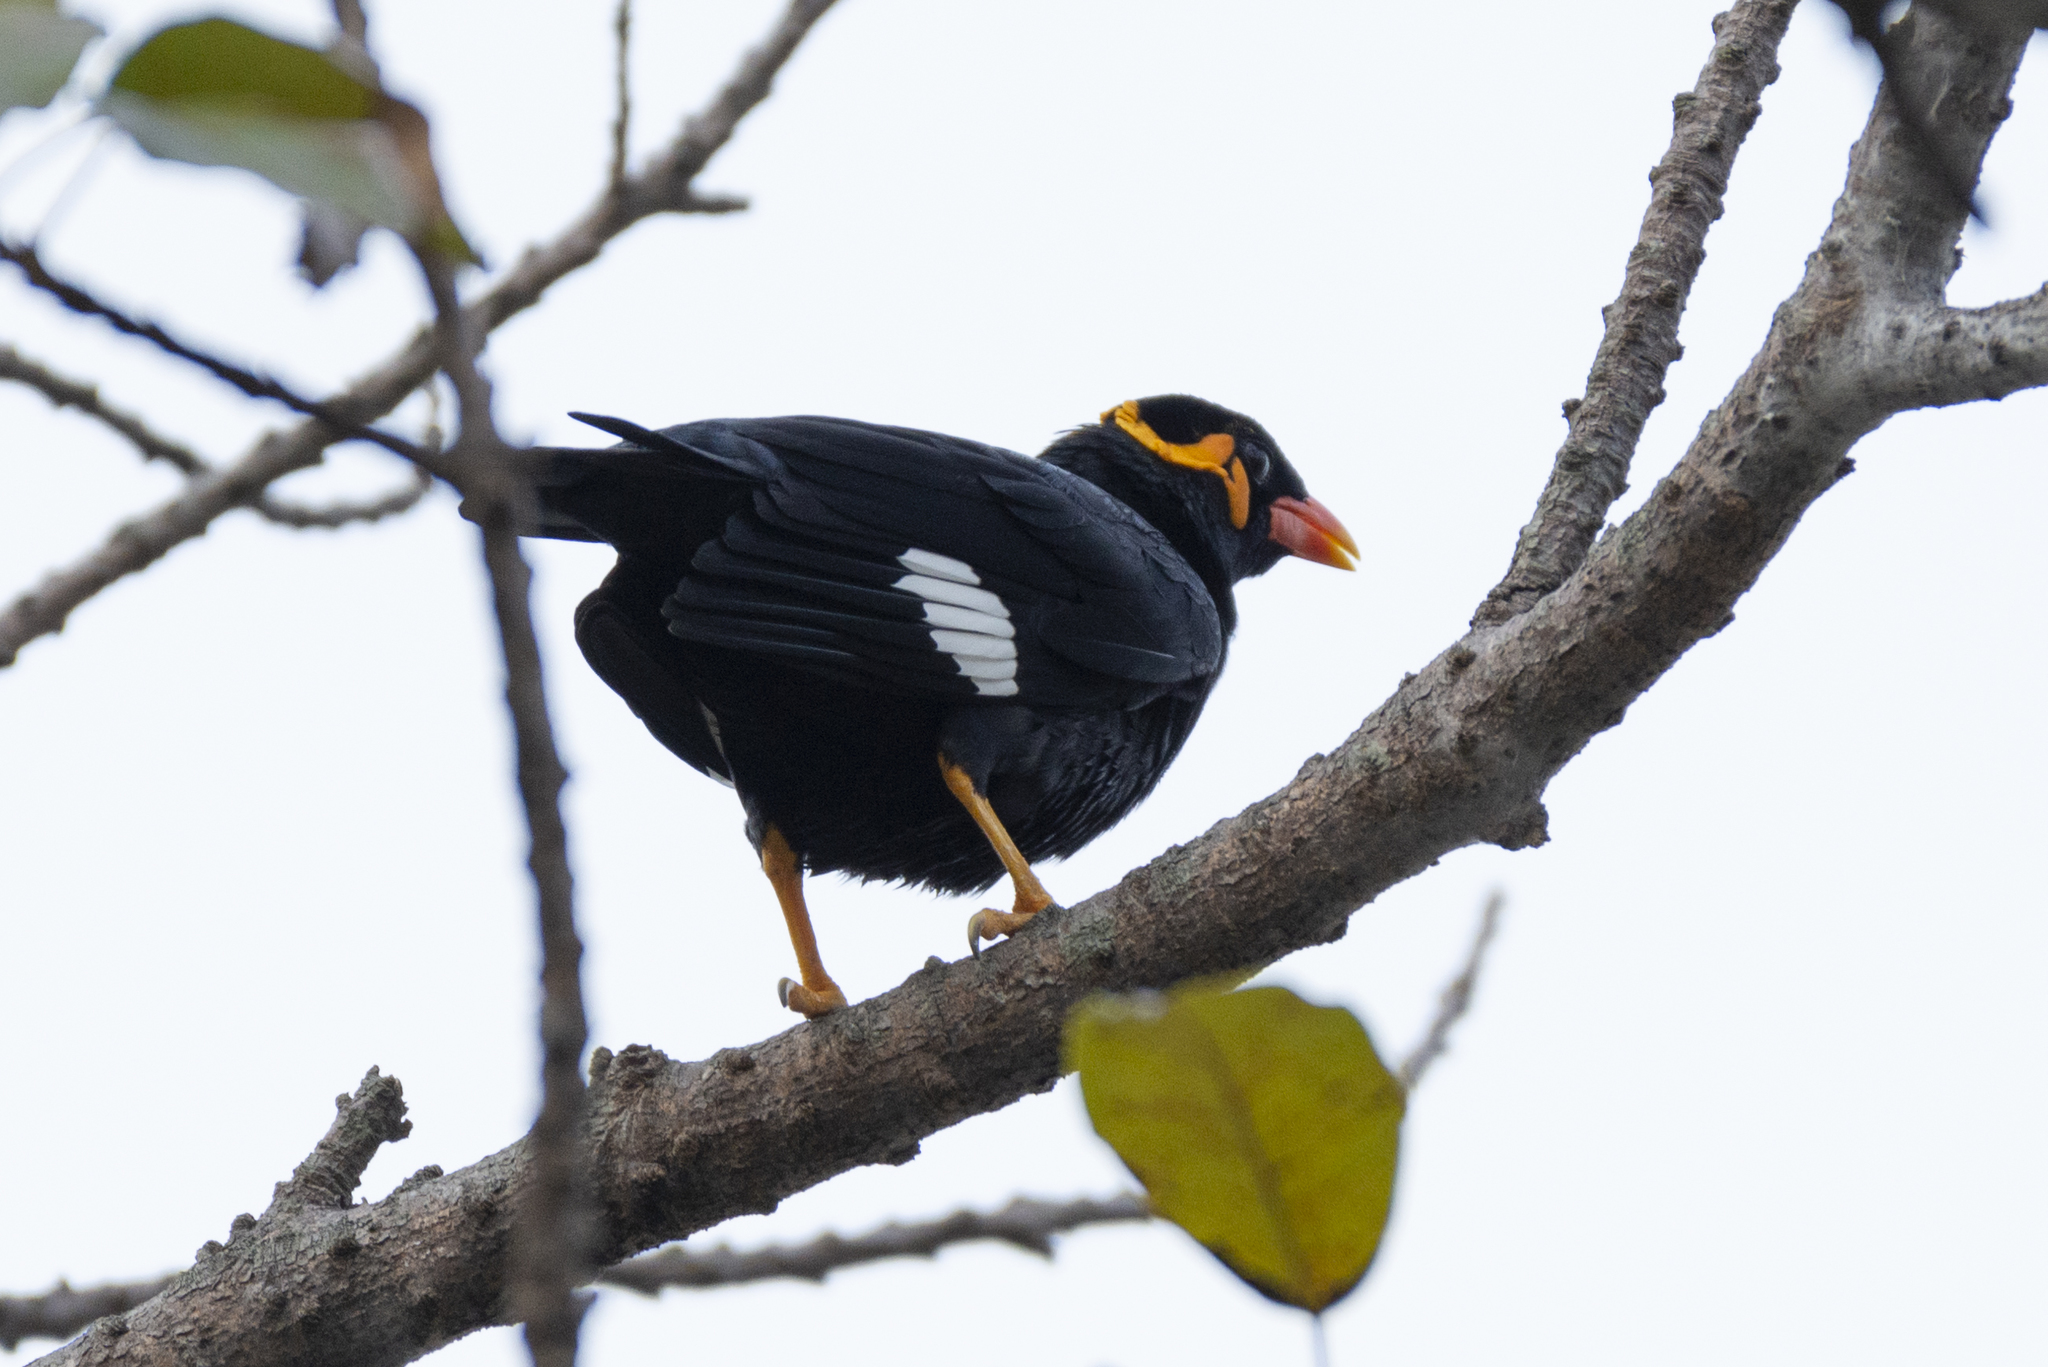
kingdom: Animalia
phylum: Chordata
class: Aves
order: Passeriformes
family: Sturnidae
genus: Gracula
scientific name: Gracula religiosa
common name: Common hill myna
